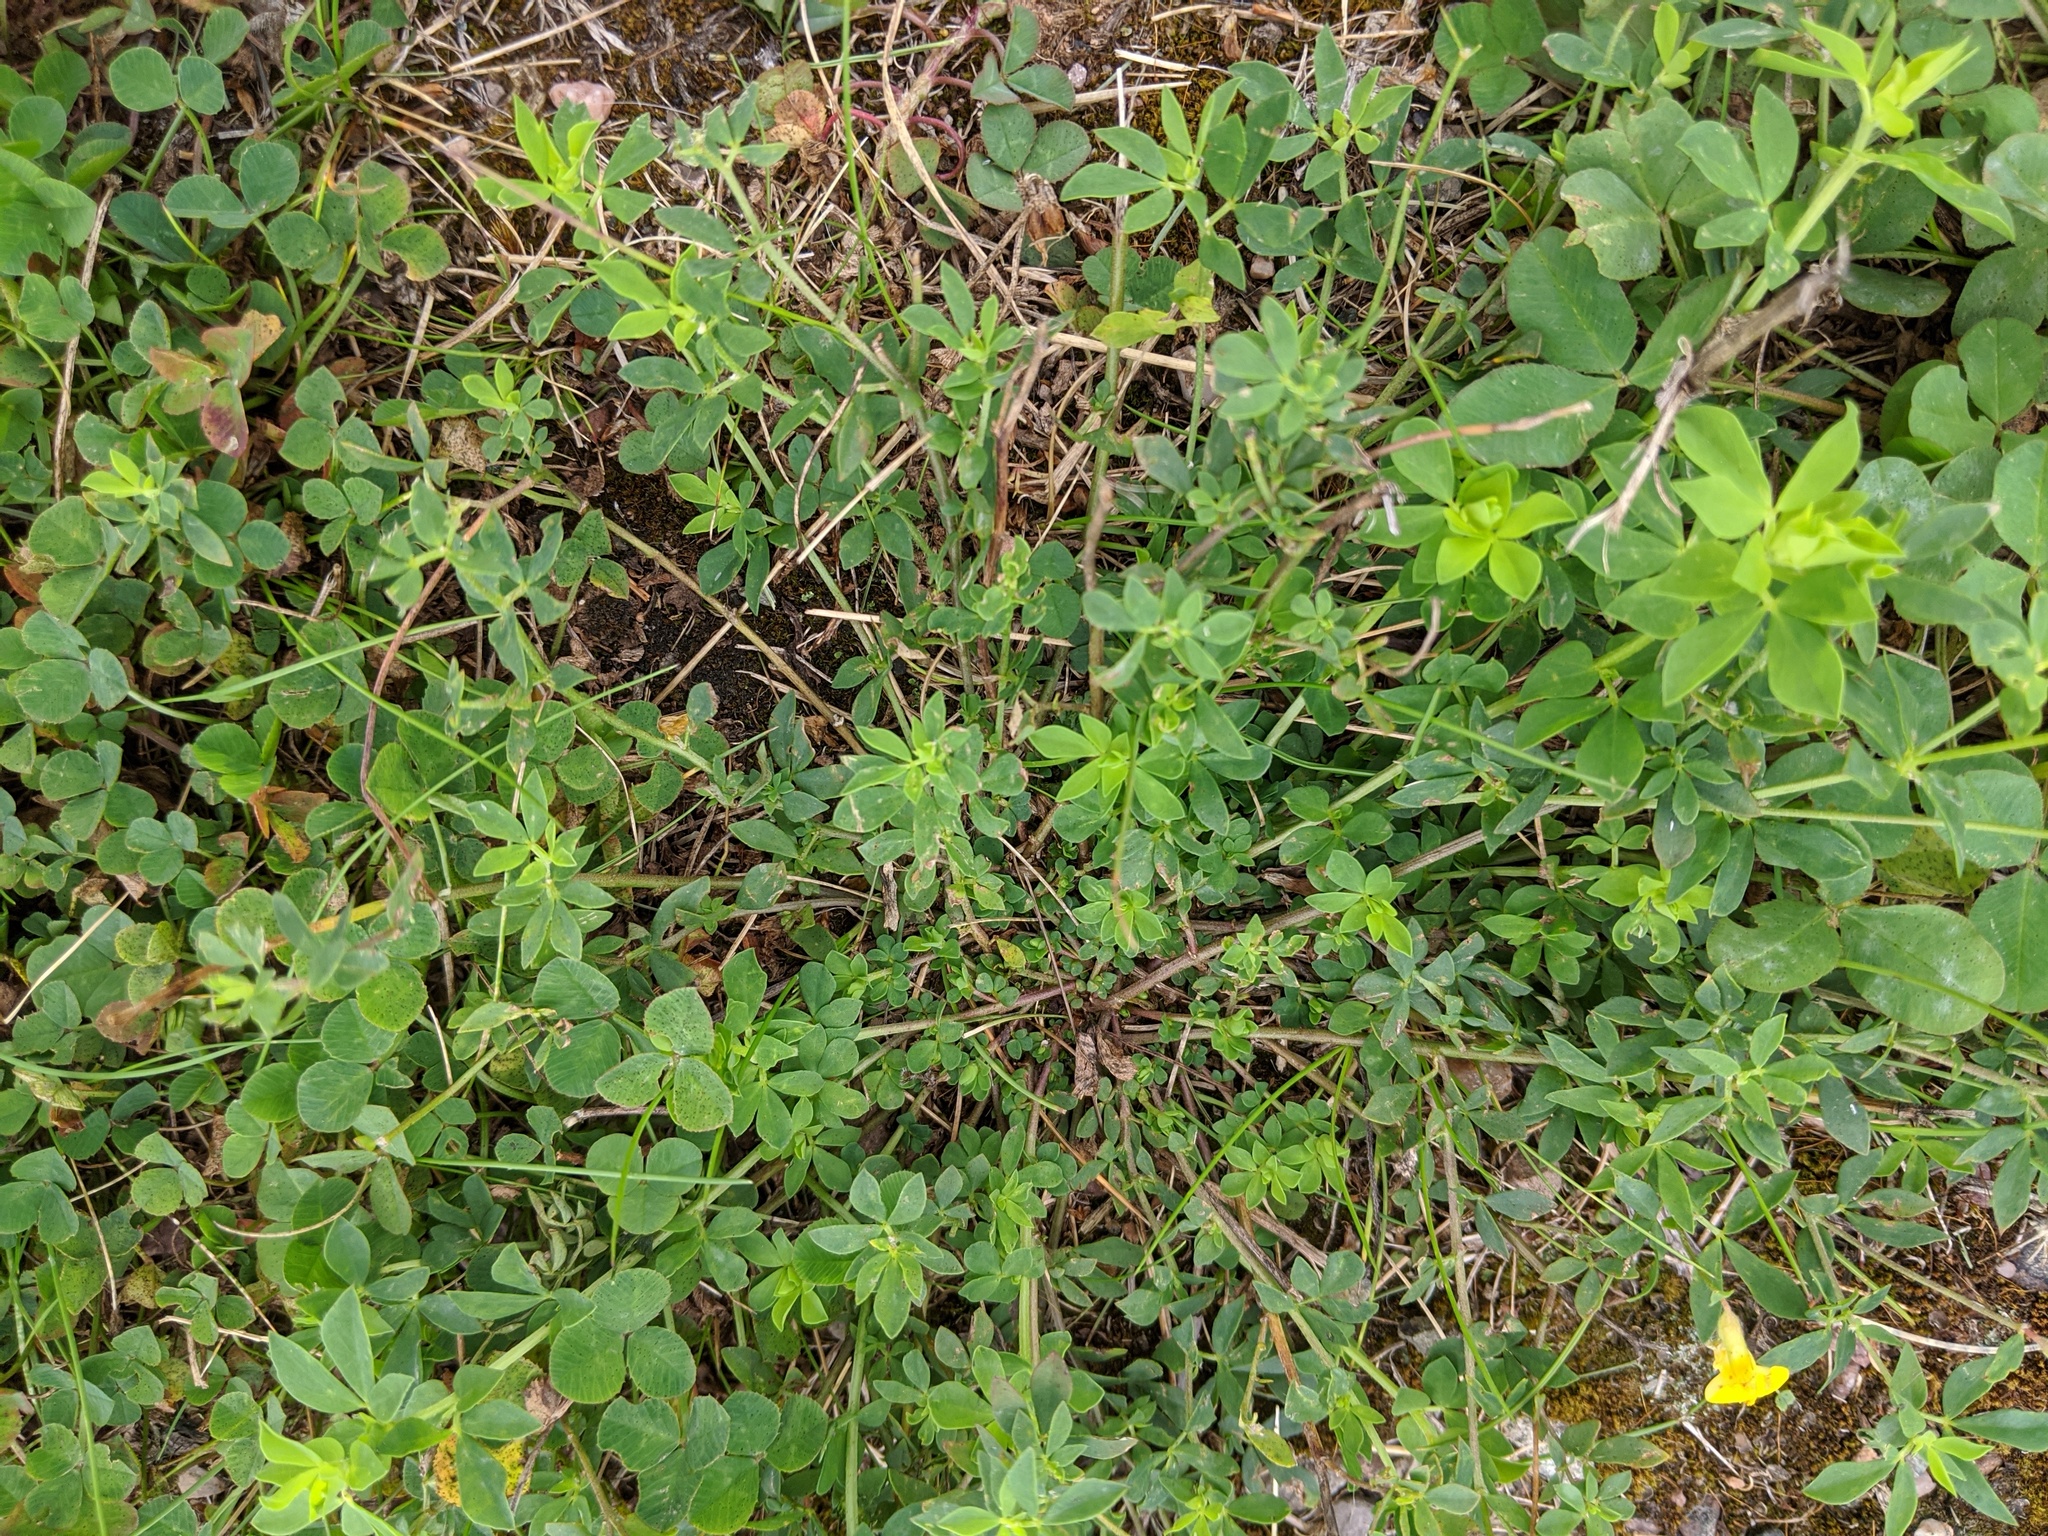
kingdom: Plantae
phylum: Tracheophyta
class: Magnoliopsida
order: Fabales
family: Fabaceae
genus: Lotus
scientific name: Lotus corniculatus
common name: Common bird's-foot-trefoil
